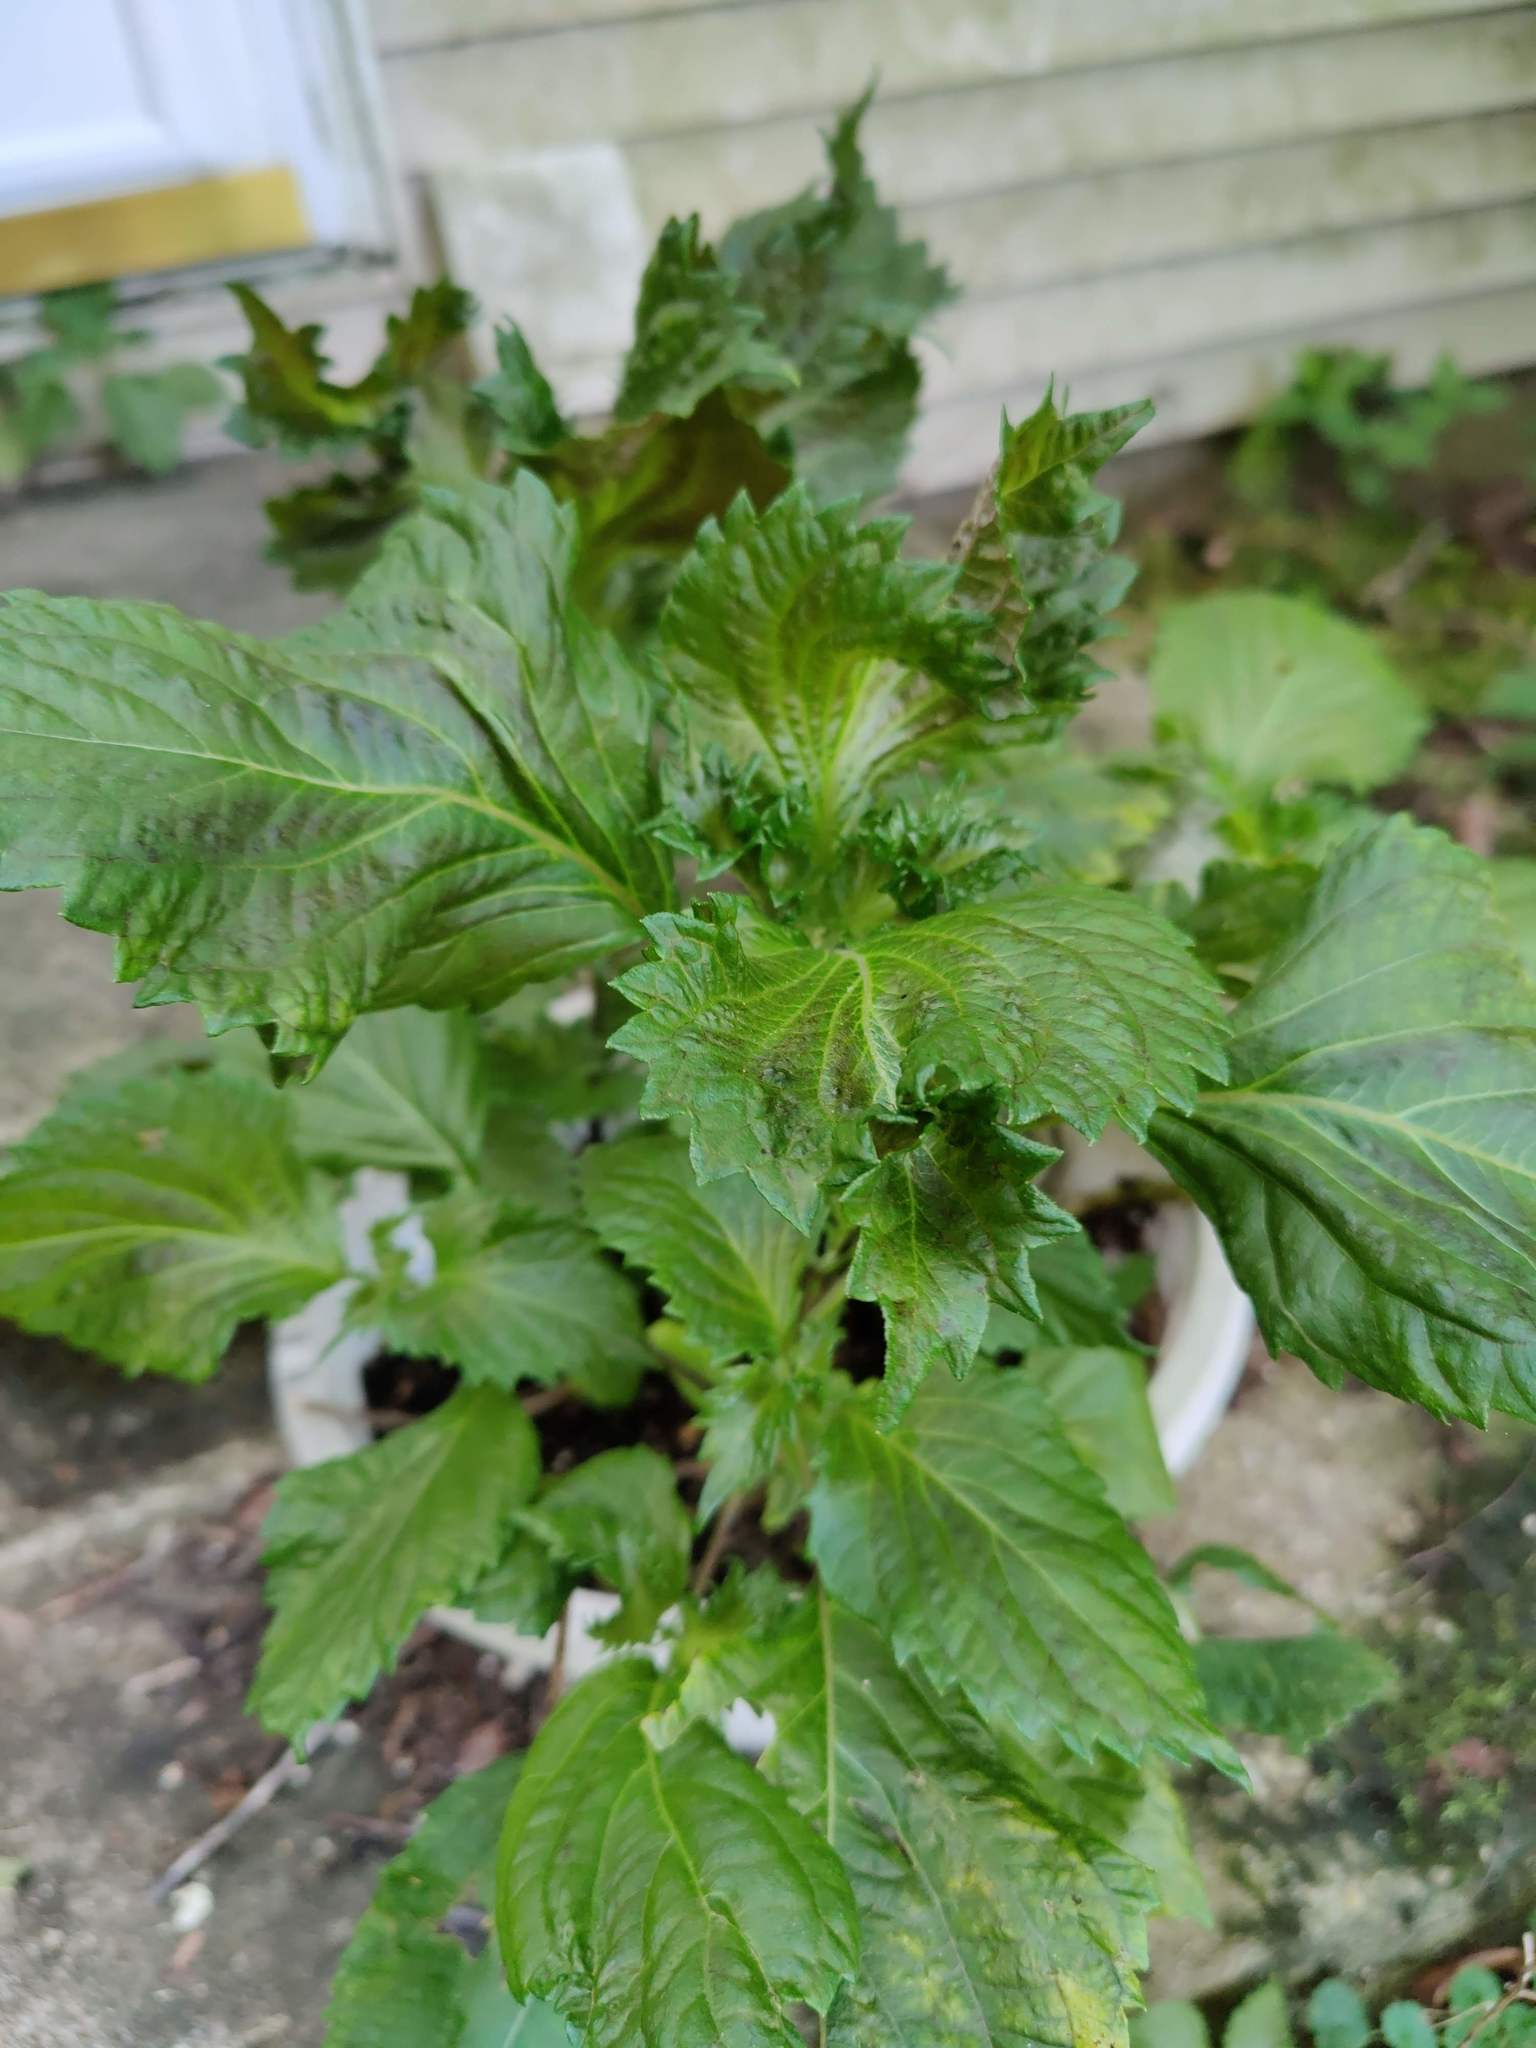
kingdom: Plantae
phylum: Tracheophyta
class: Magnoliopsida
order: Lamiales
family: Lamiaceae
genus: Perilla
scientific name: Perilla frutescens
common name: Perilla
